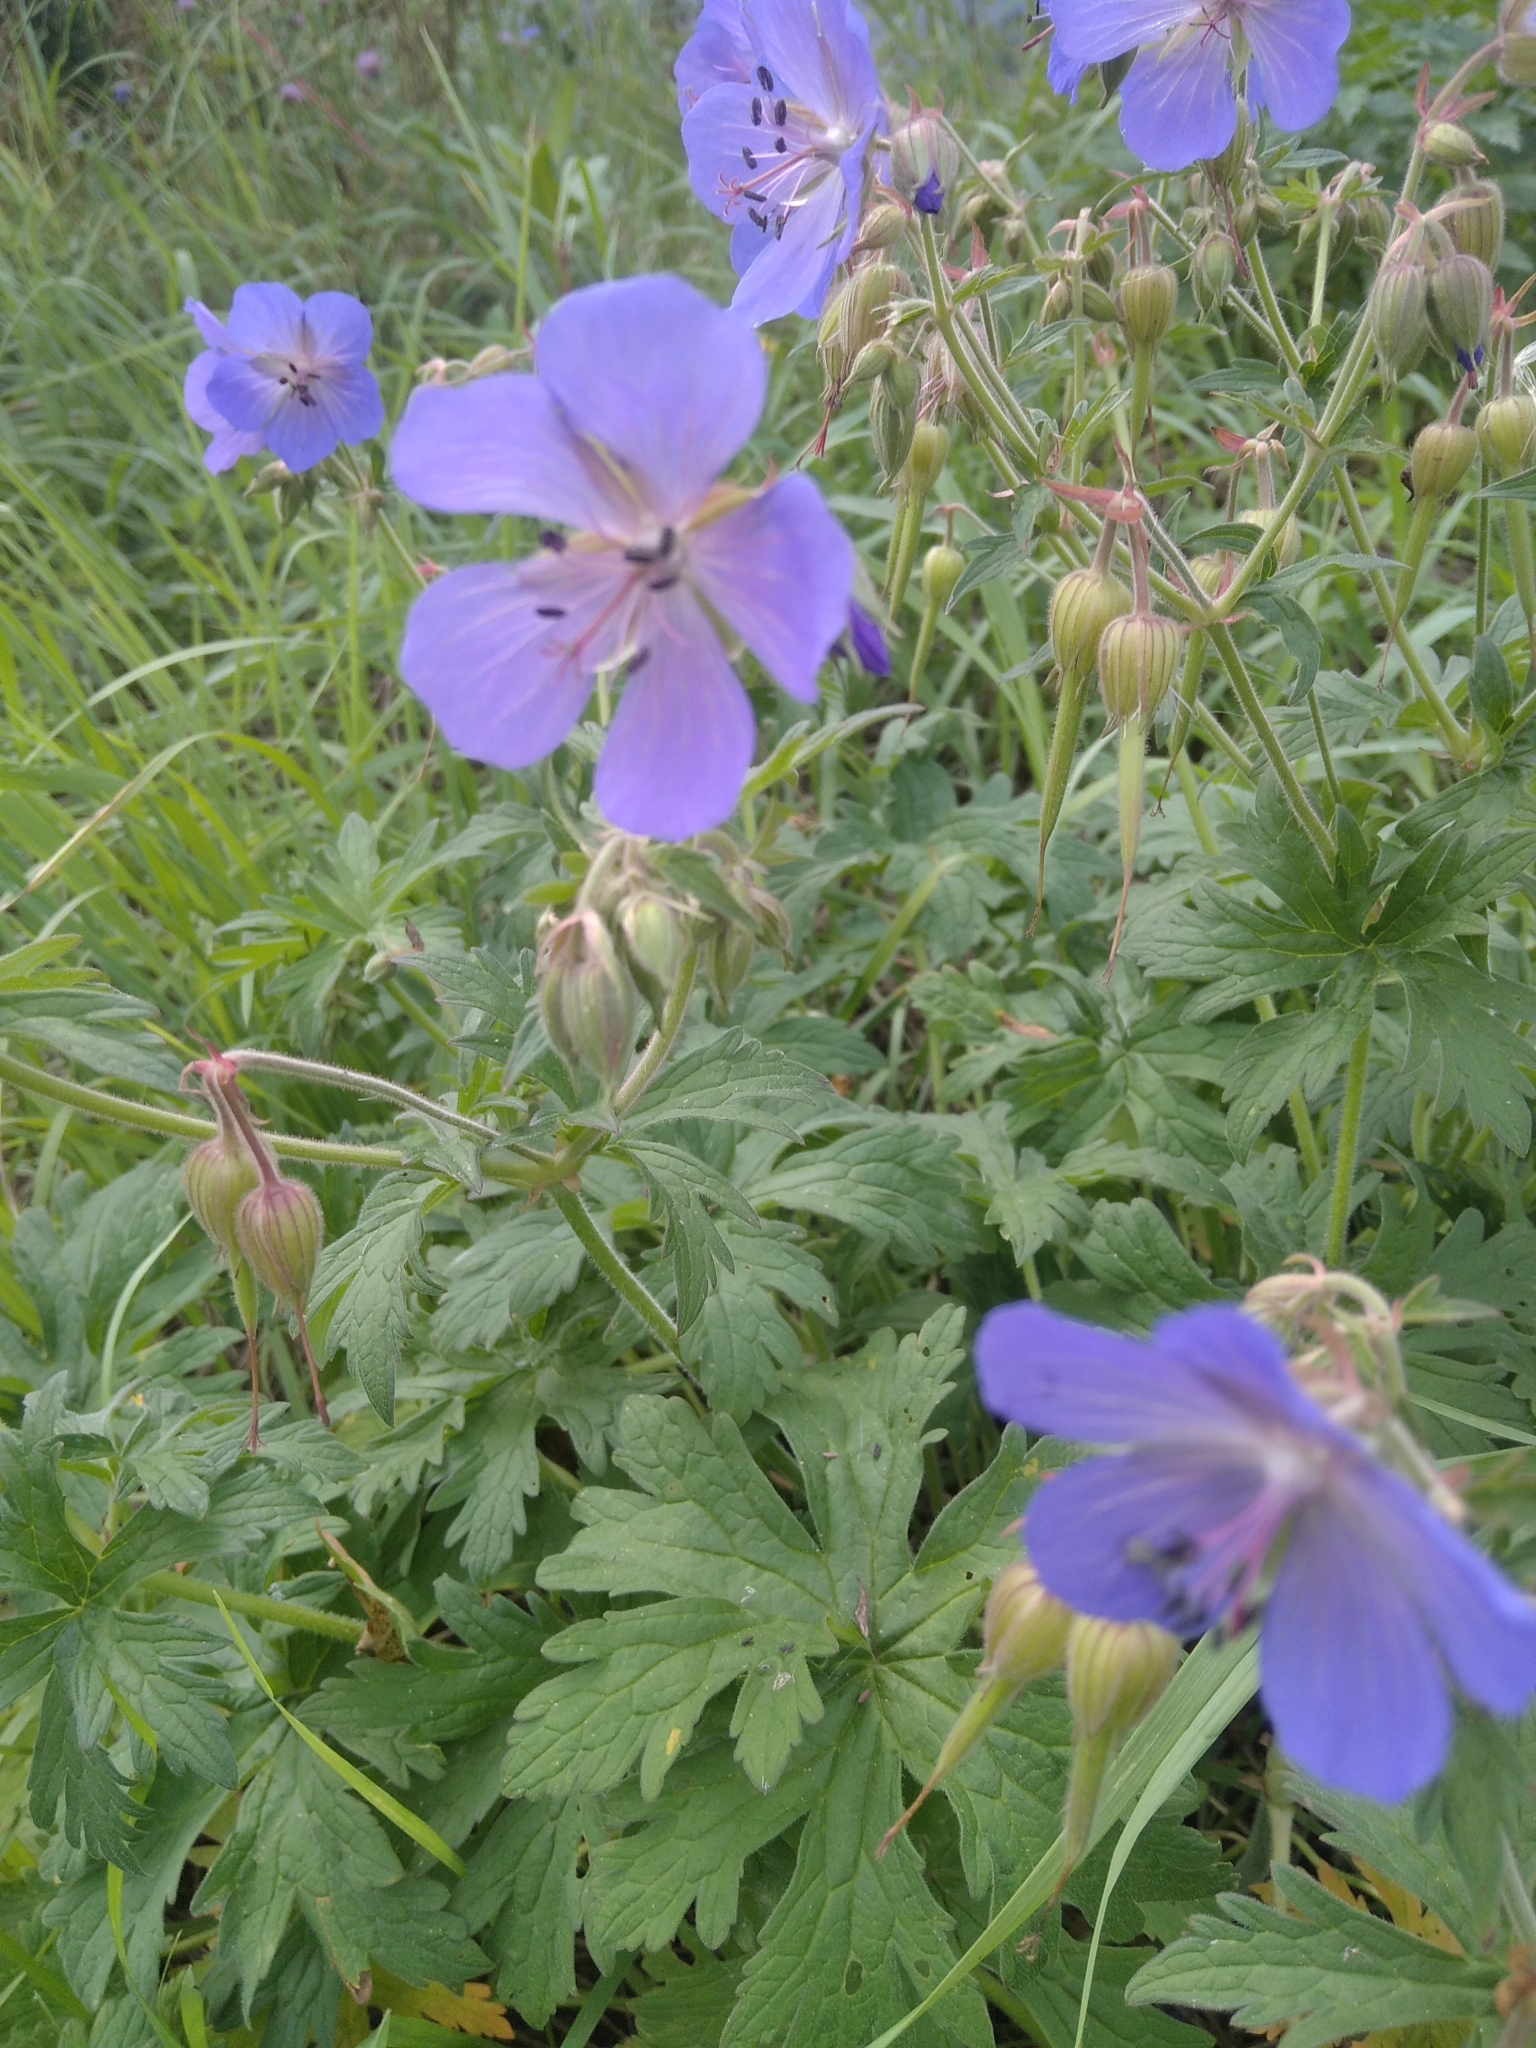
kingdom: Plantae
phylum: Tracheophyta
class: Magnoliopsida
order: Geraniales
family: Geraniaceae
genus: Geranium
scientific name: Geranium pratense
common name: Meadow crane's-bill
